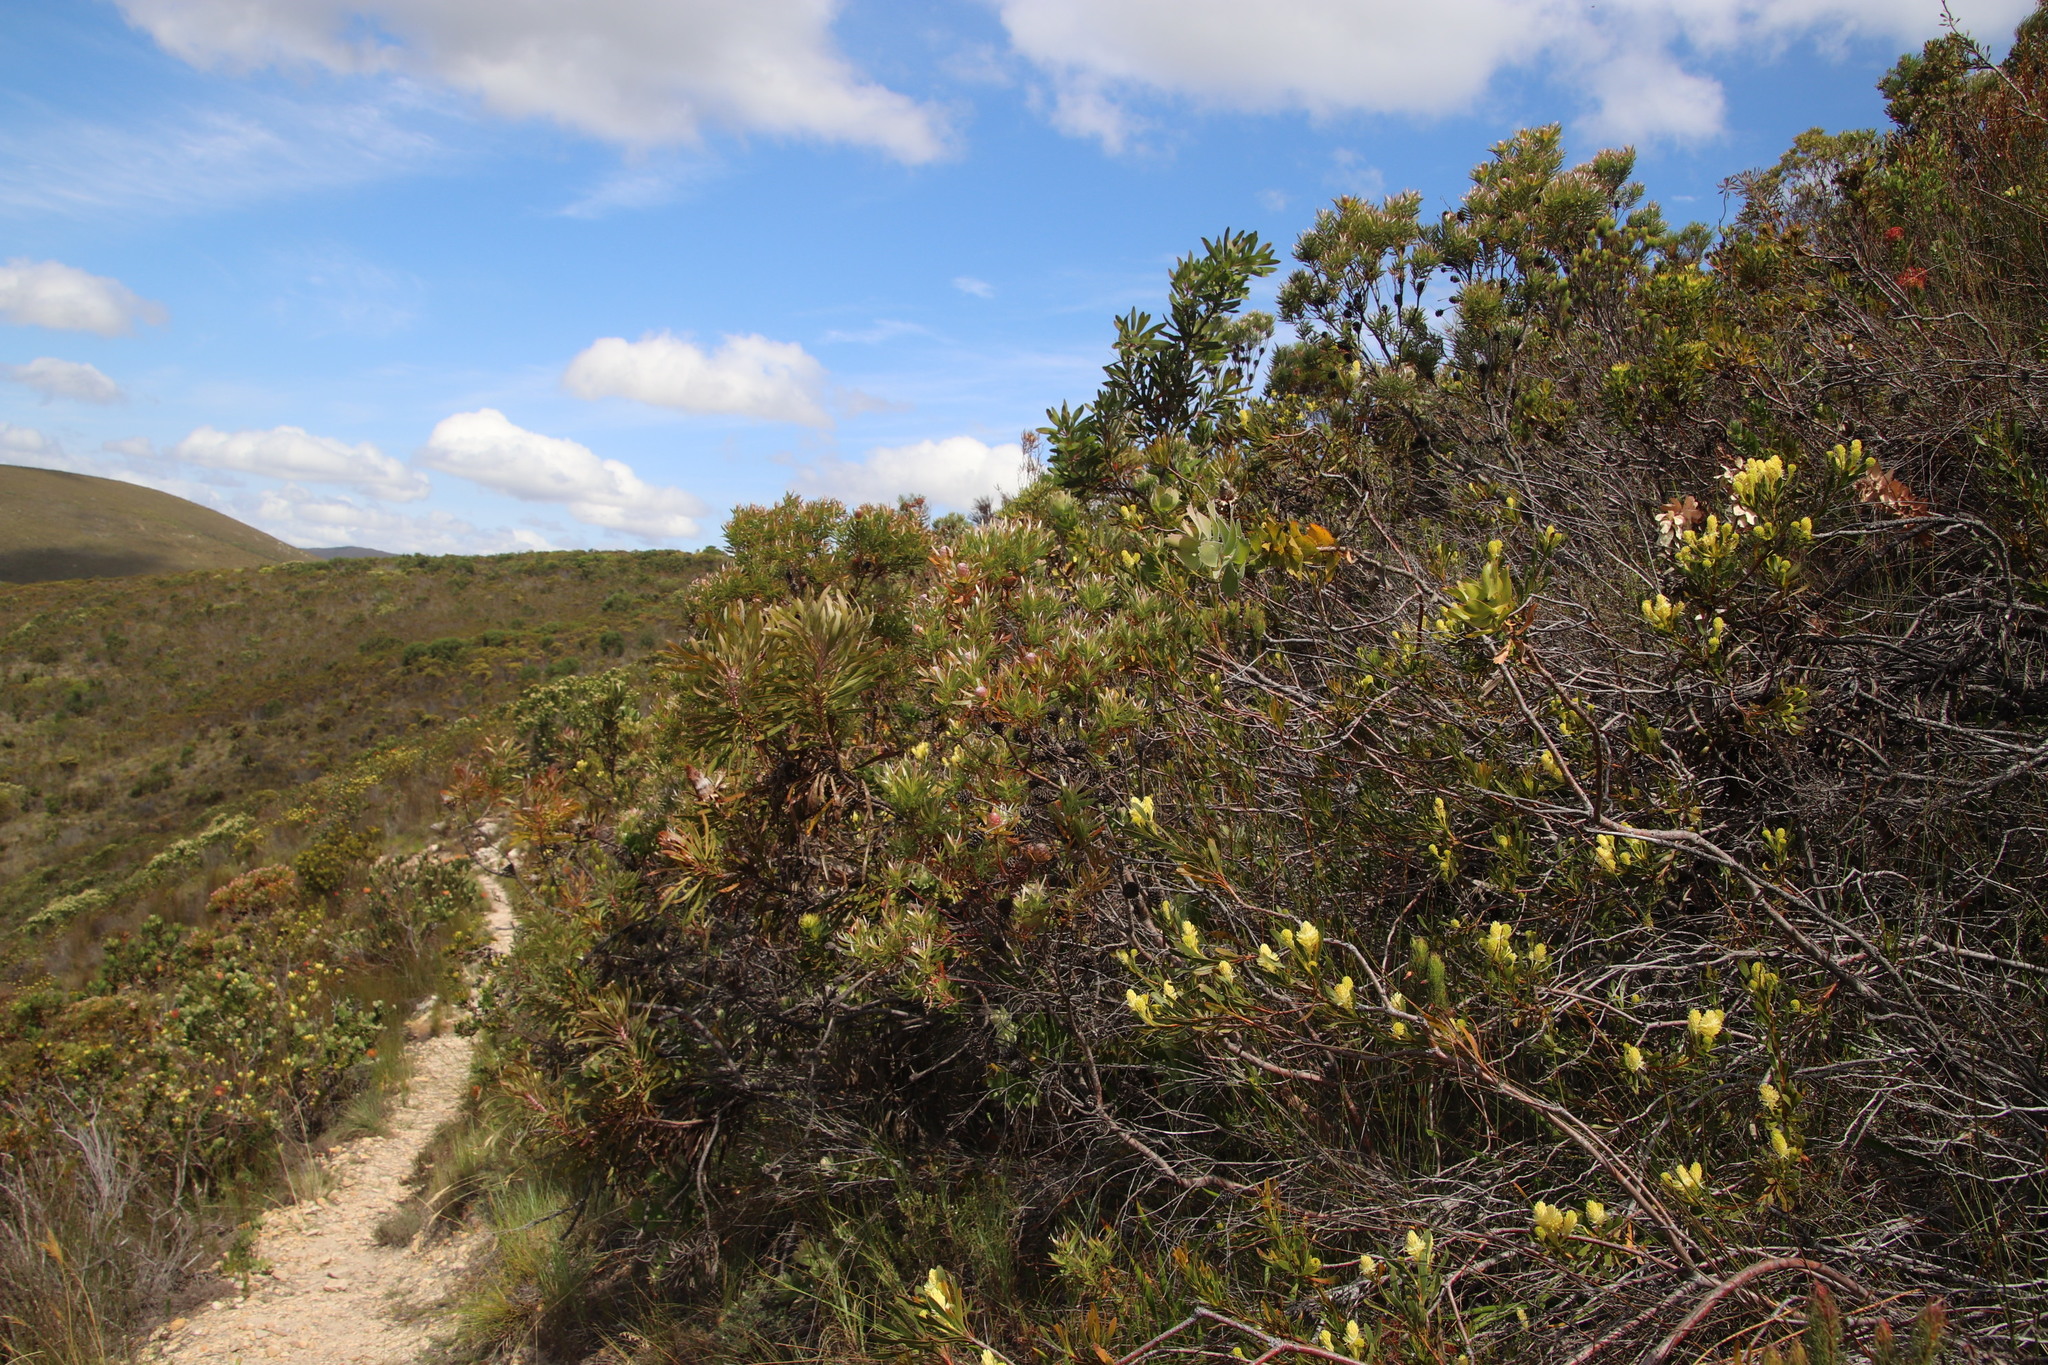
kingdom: Plantae
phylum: Tracheophyta
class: Magnoliopsida
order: Proteales
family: Proteaceae
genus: Leucadendron
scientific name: Leucadendron xanthoconus
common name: Sickle-leaf conebush
